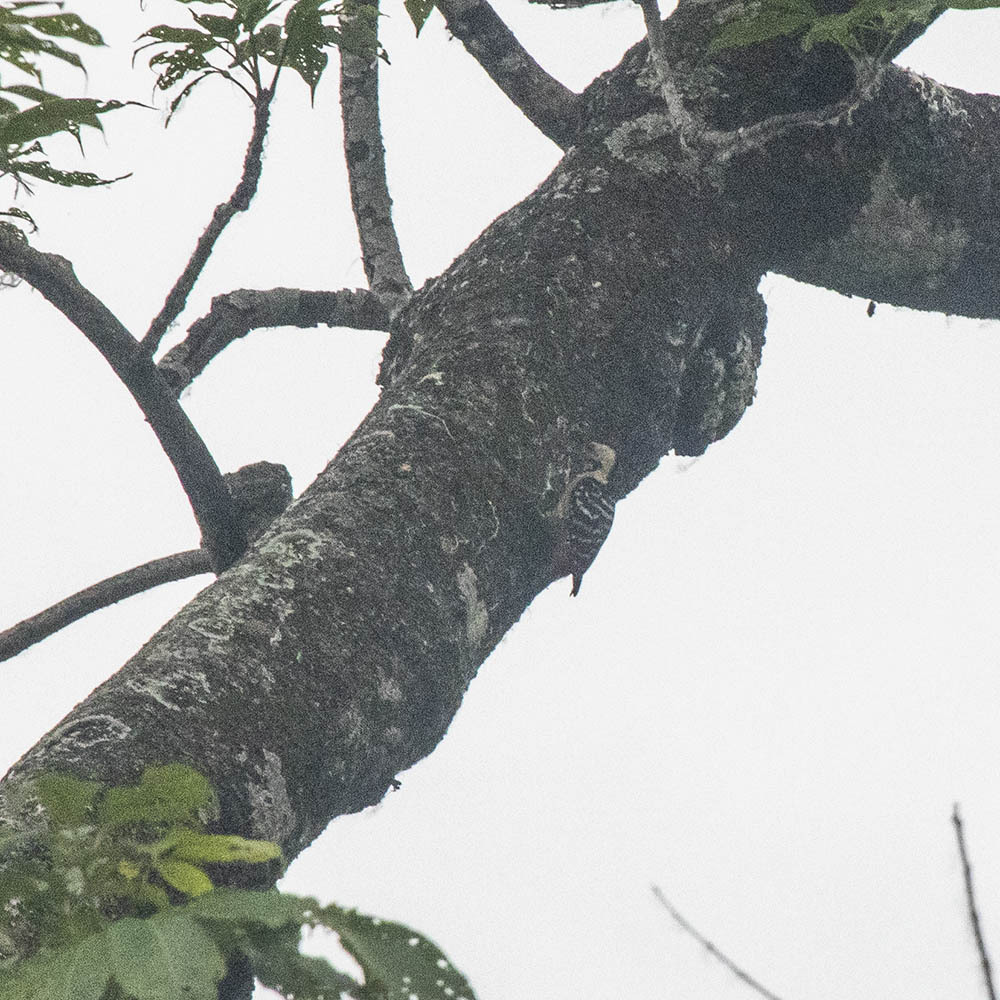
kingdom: Animalia
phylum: Chordata
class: Aves
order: Piciformes
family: Picidae
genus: Yungipicus
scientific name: Yungipicus canicapillus
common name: Grey-capped pygmy woodpecker
